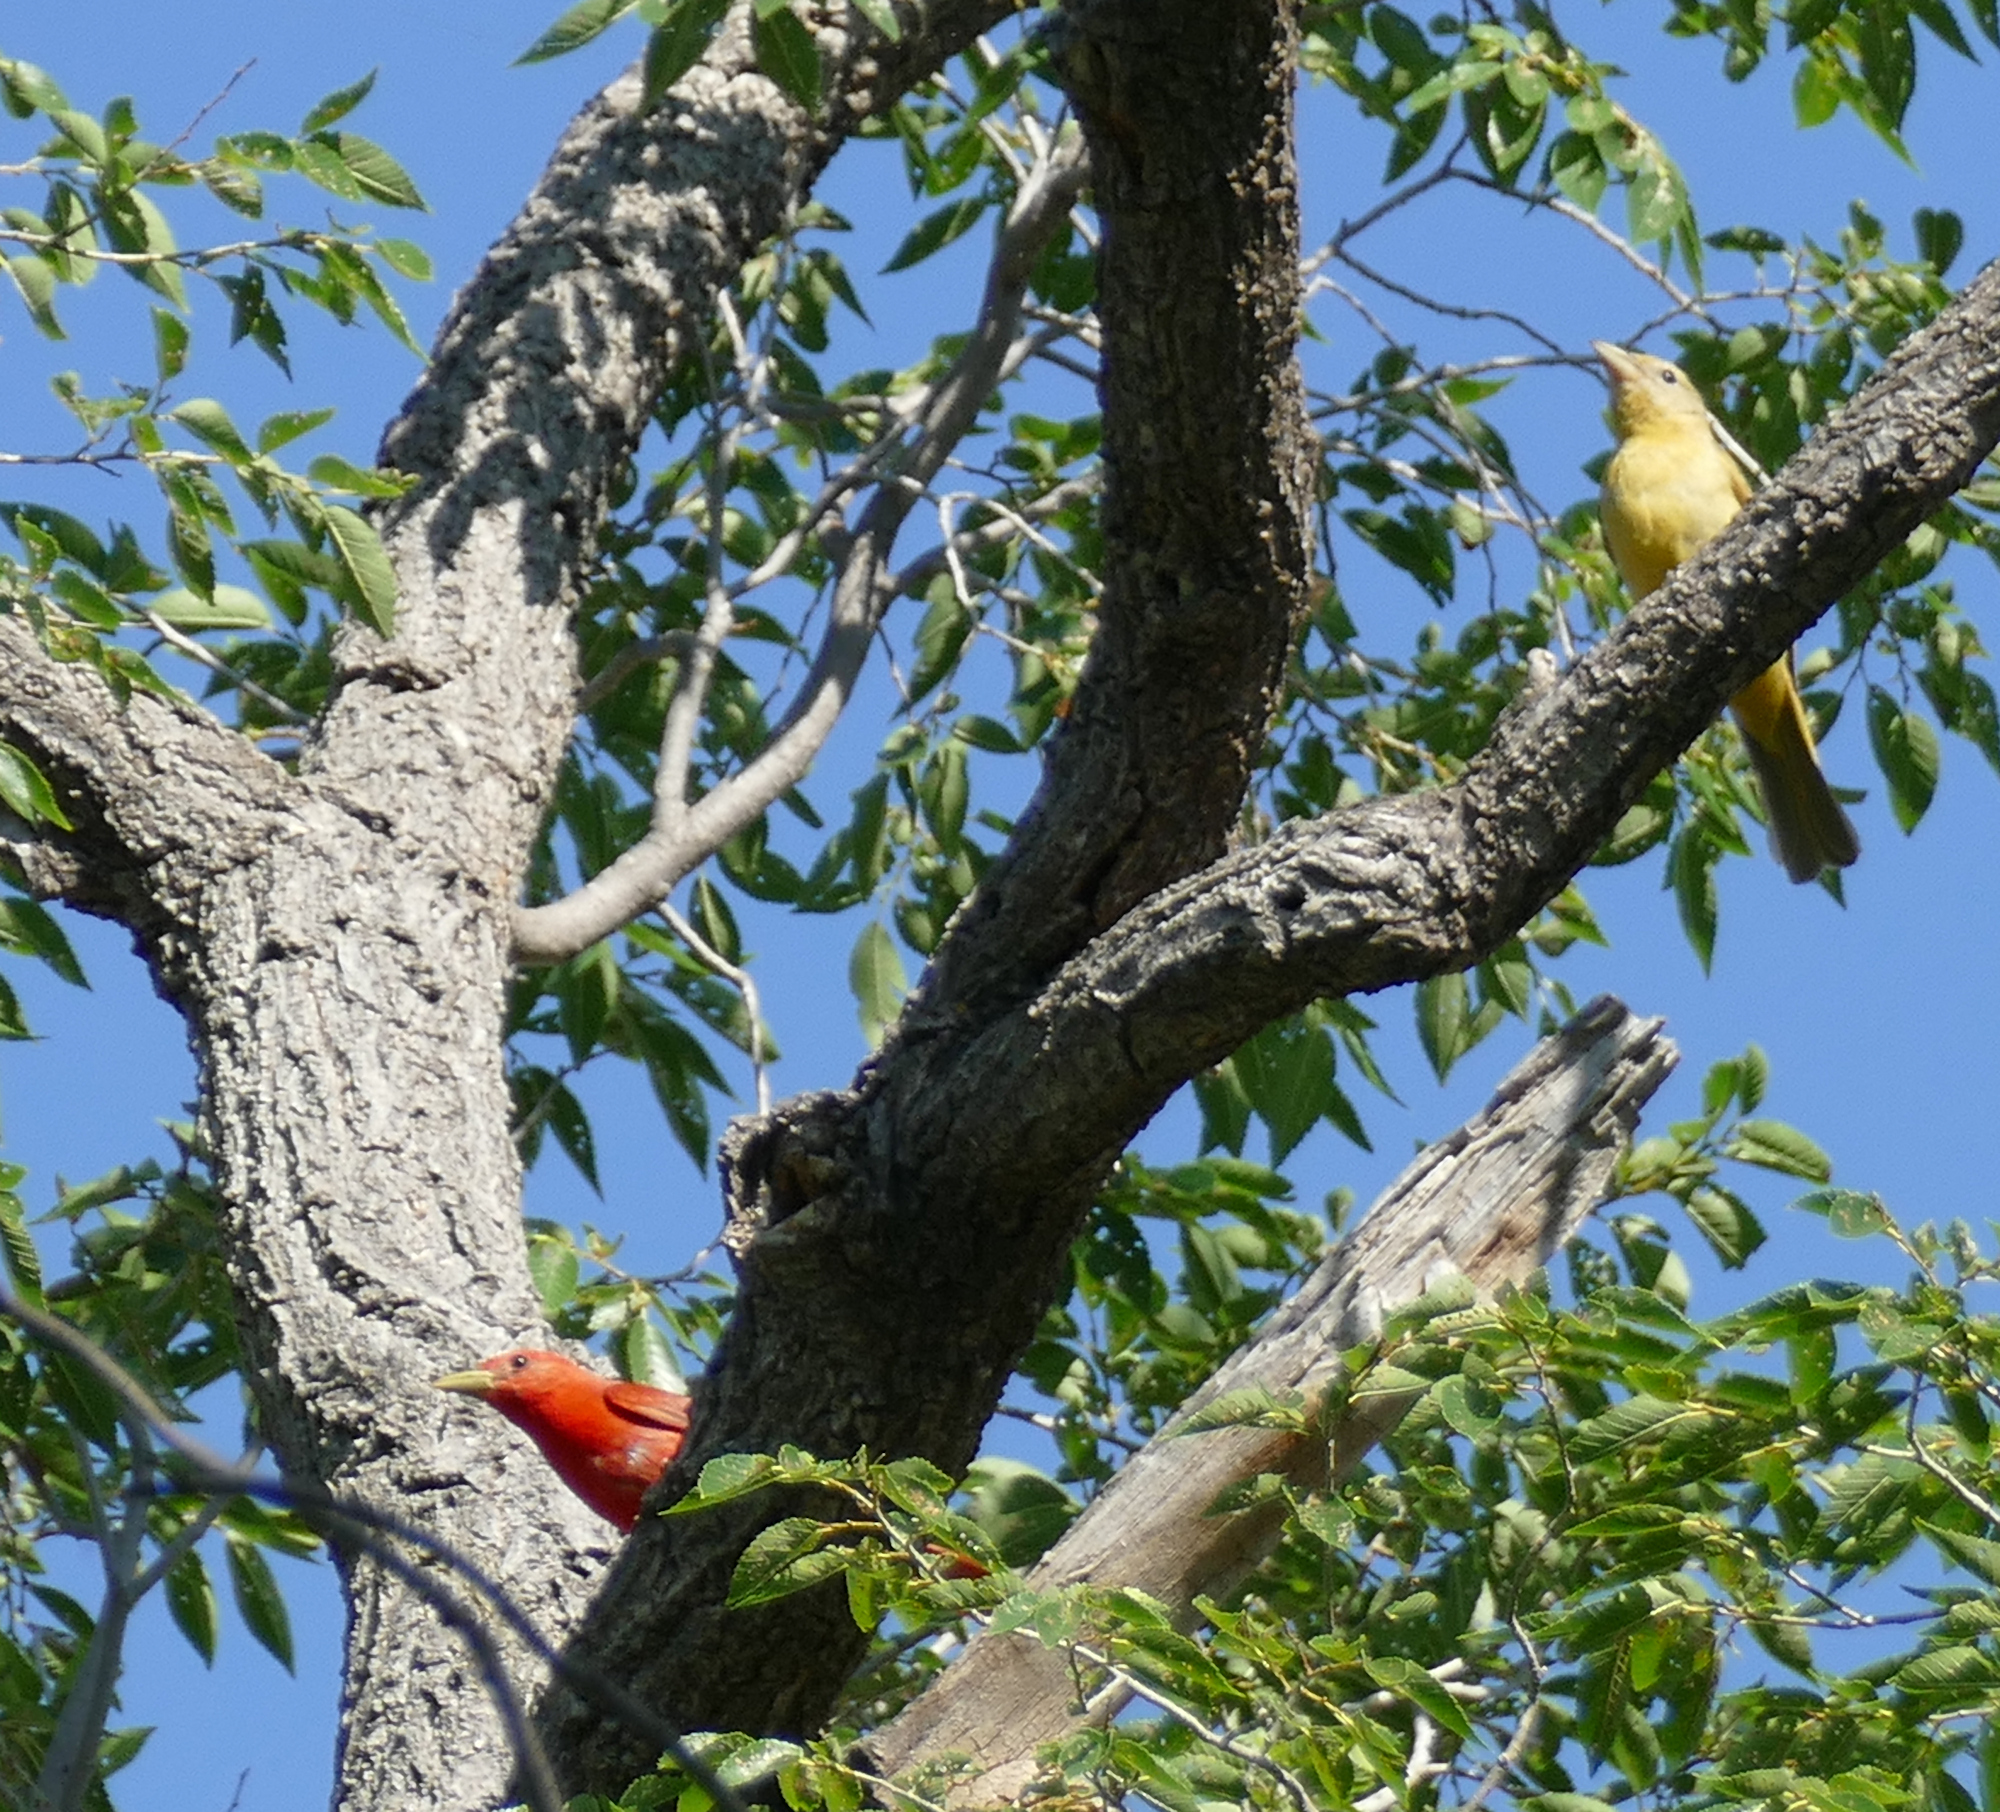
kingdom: Animalia
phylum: Chordata
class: Aves
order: Passeriformes
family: Cardinalidae
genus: Piranga
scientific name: Piranga rubra
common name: Summer tanager
